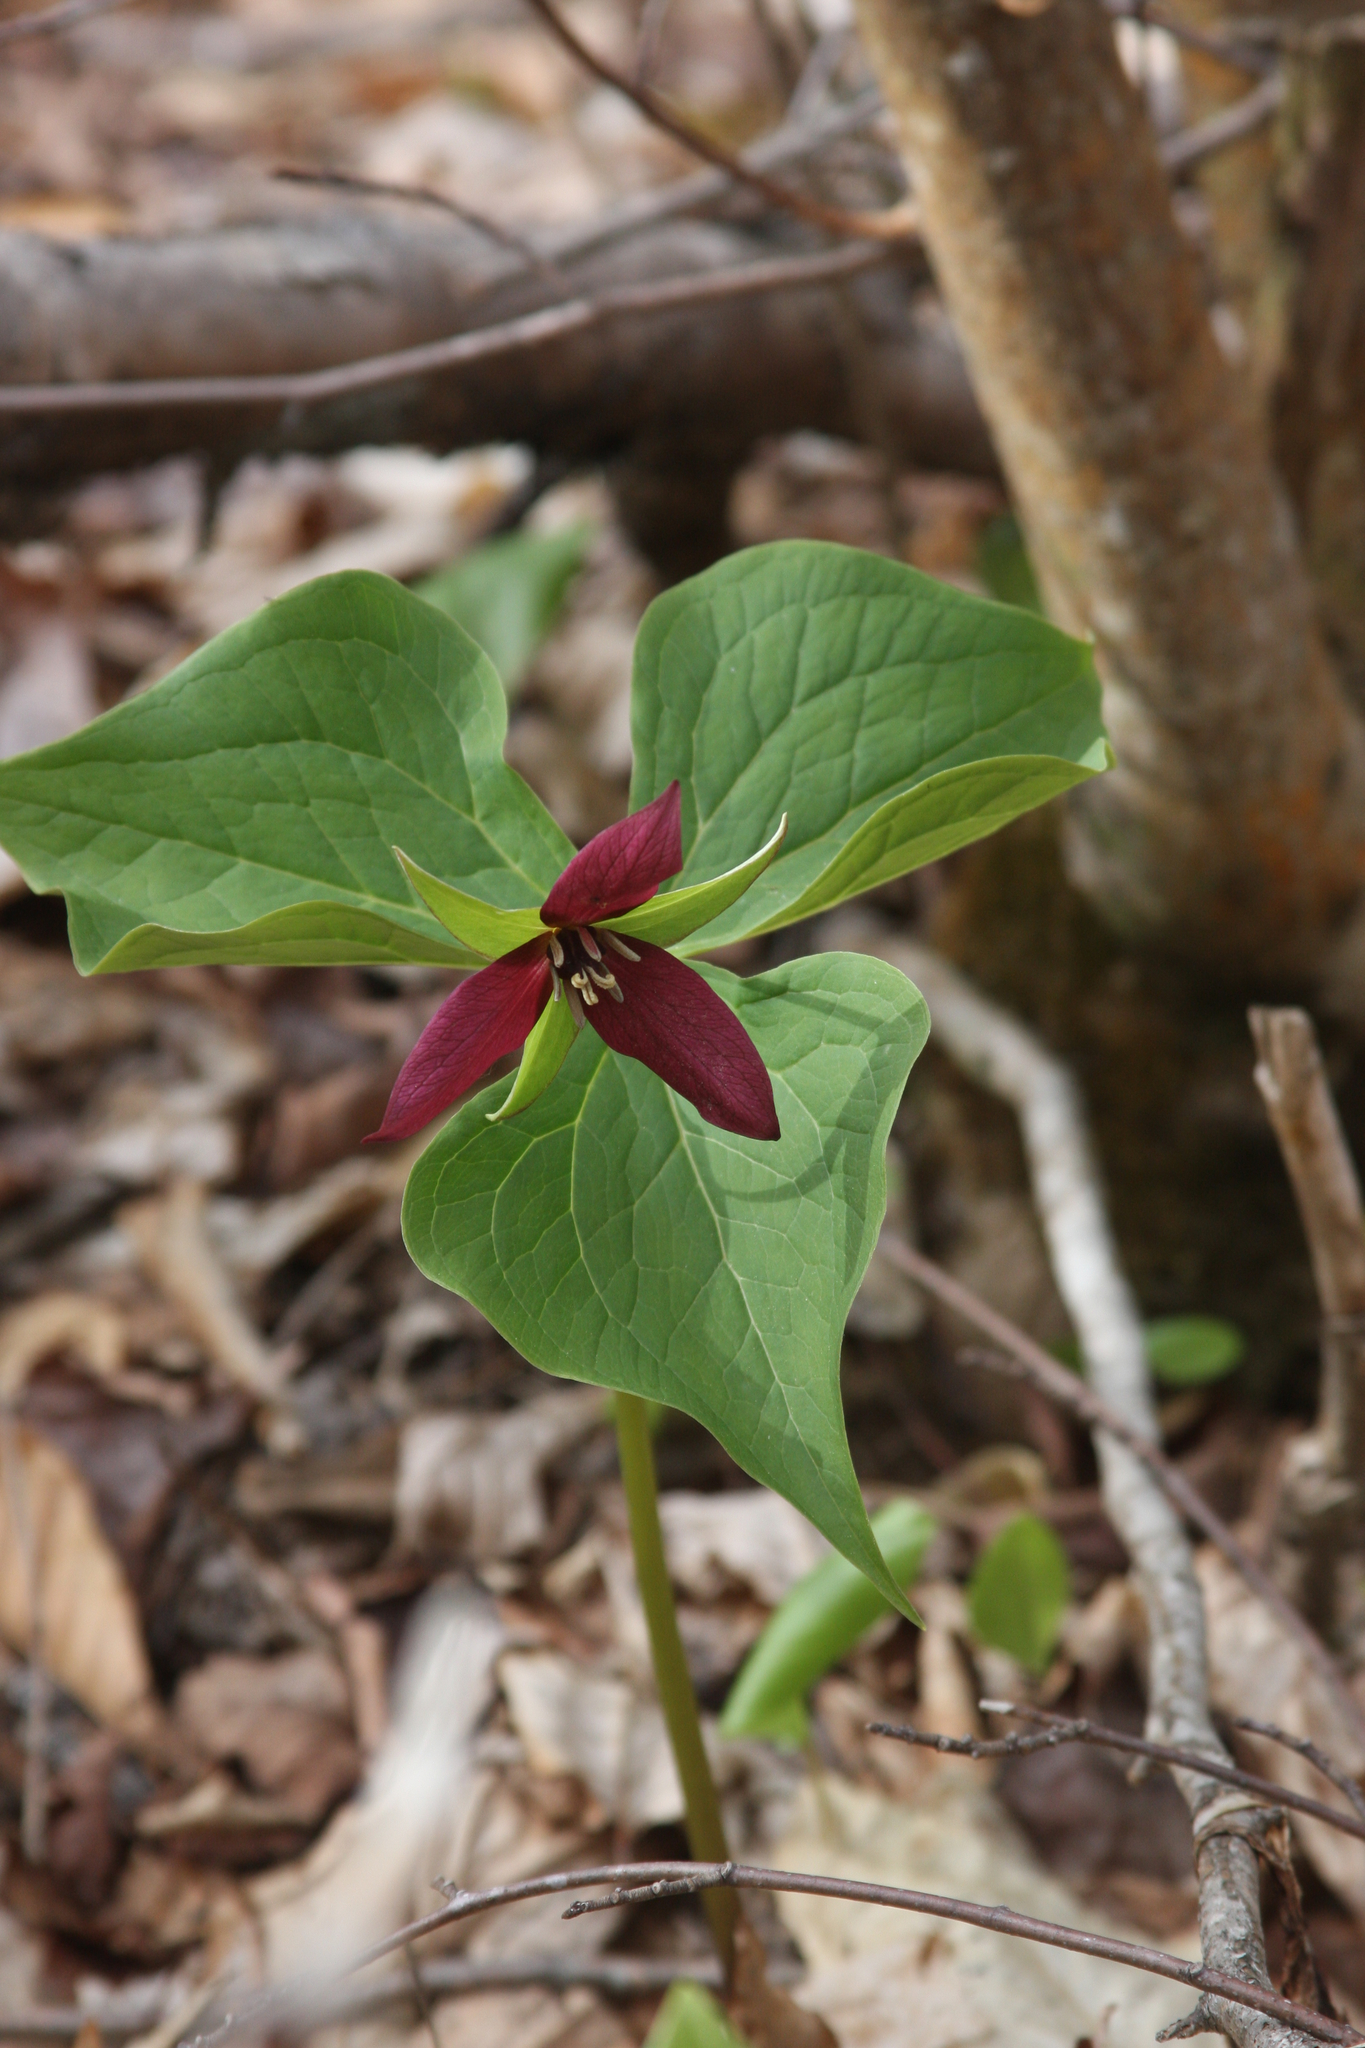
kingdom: Plantae
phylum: Tracheophyta
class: Liliopsida
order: Liliales
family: Melanthiaceae
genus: Trillium
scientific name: Trillium erectum
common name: Purple trillium
